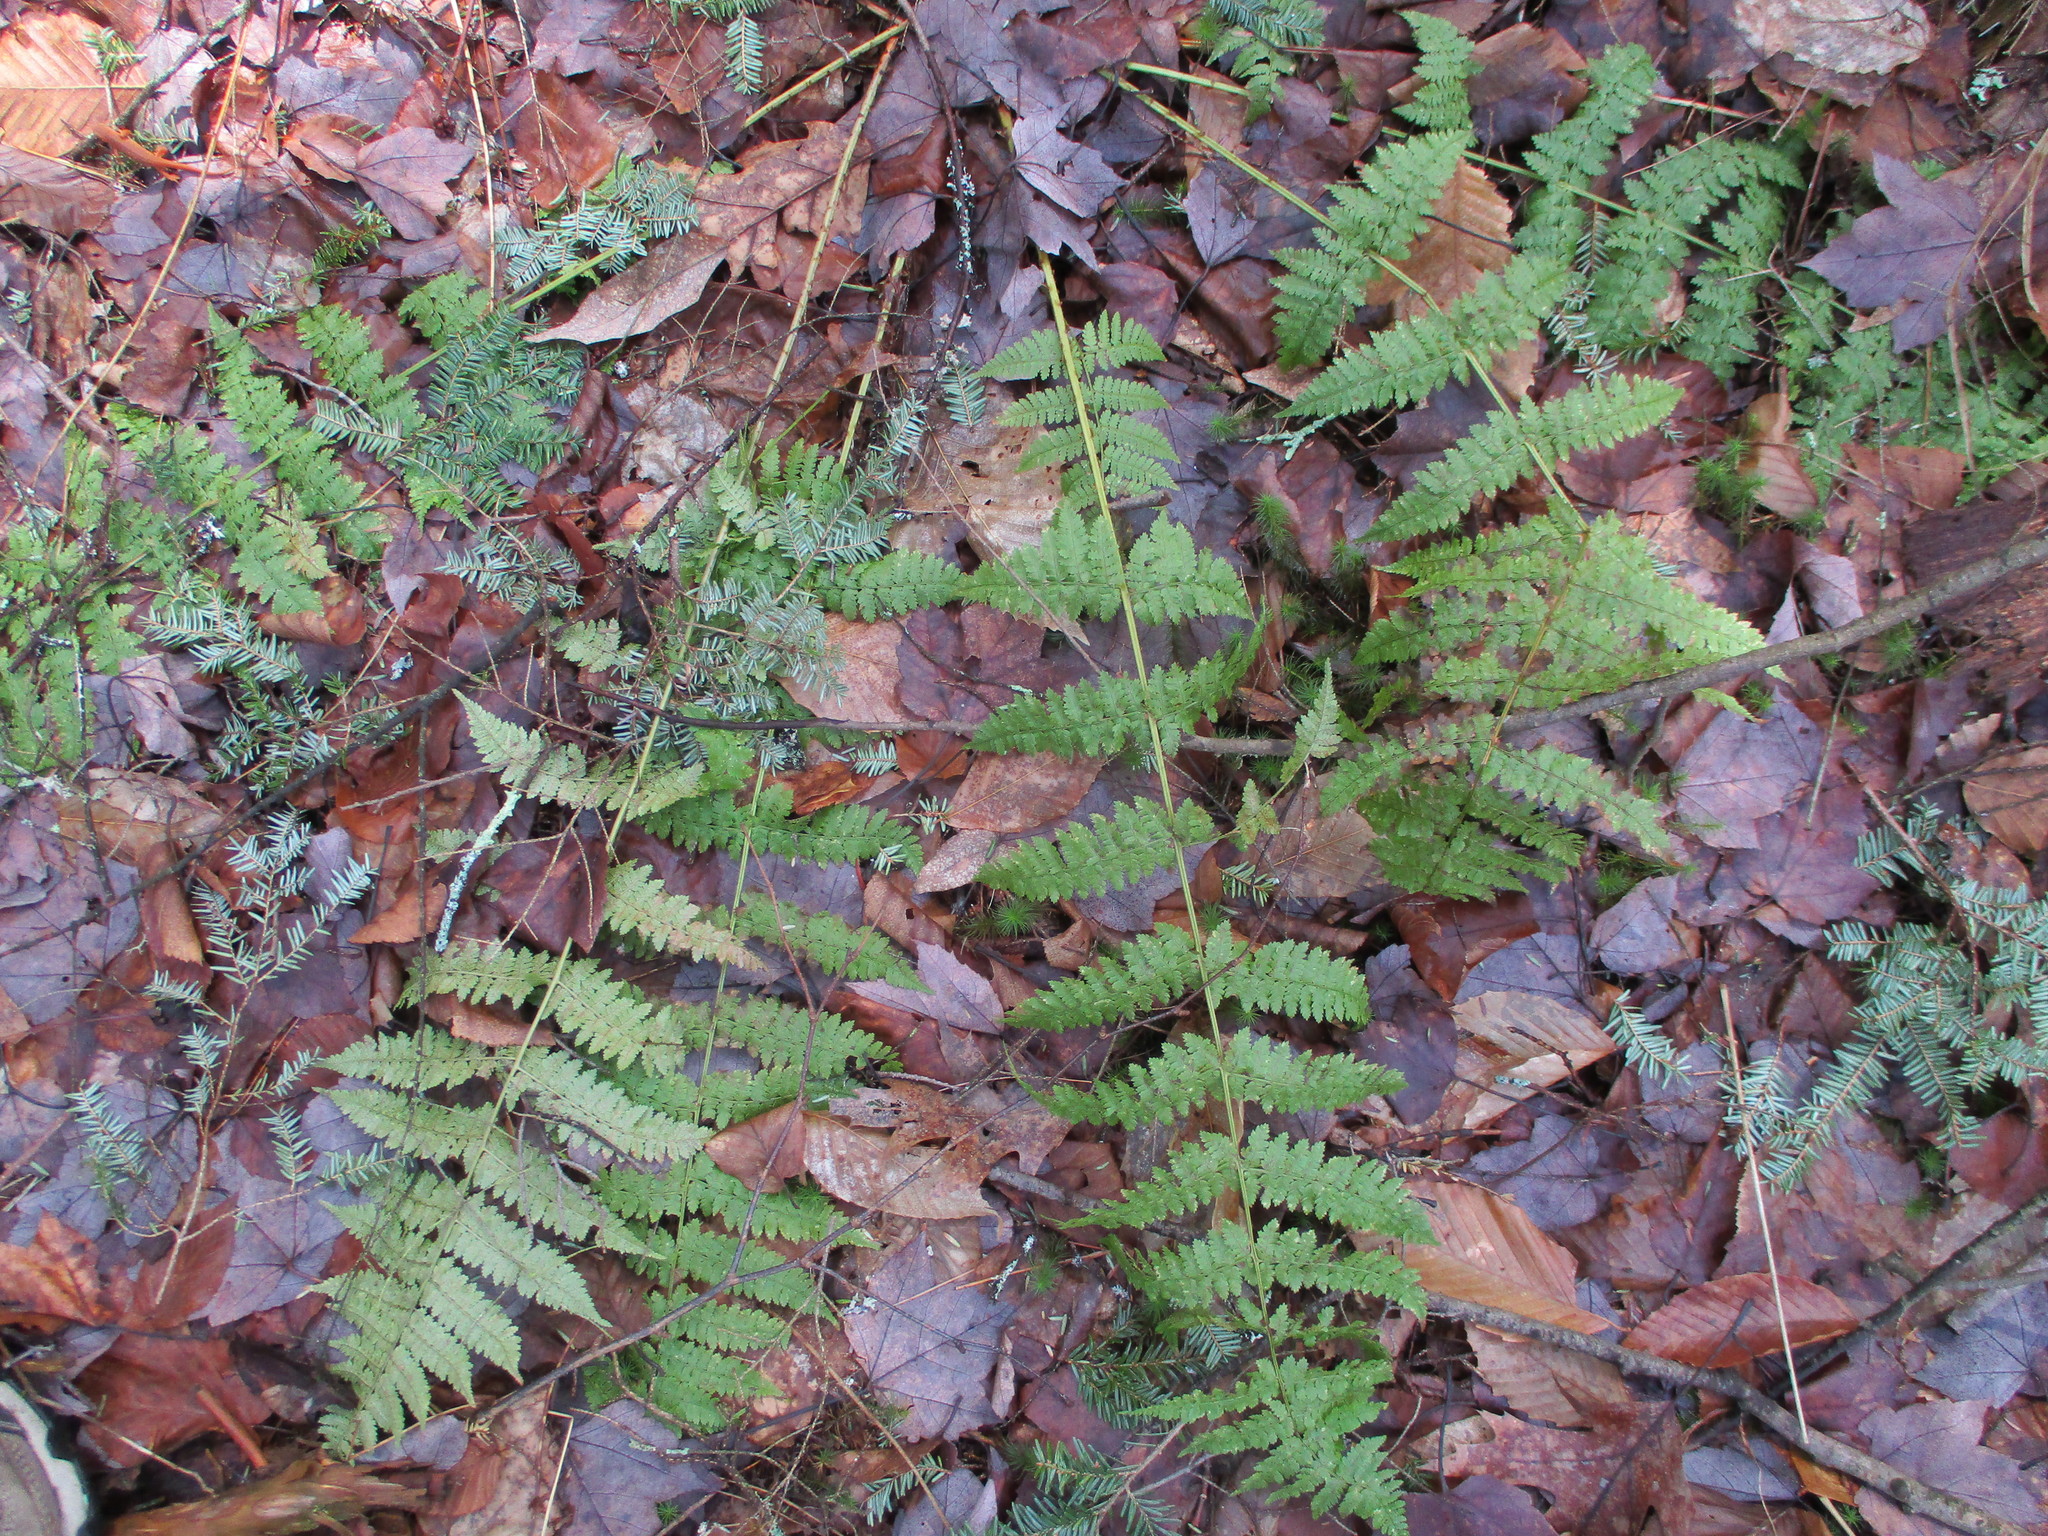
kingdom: Plantae
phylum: Tracheophyta
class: Polypodiopsida
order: Polypodiales
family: Dryopteridaceae
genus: Dryopteris
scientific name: Dryopteris intermedia
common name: Evergreen wood fern
